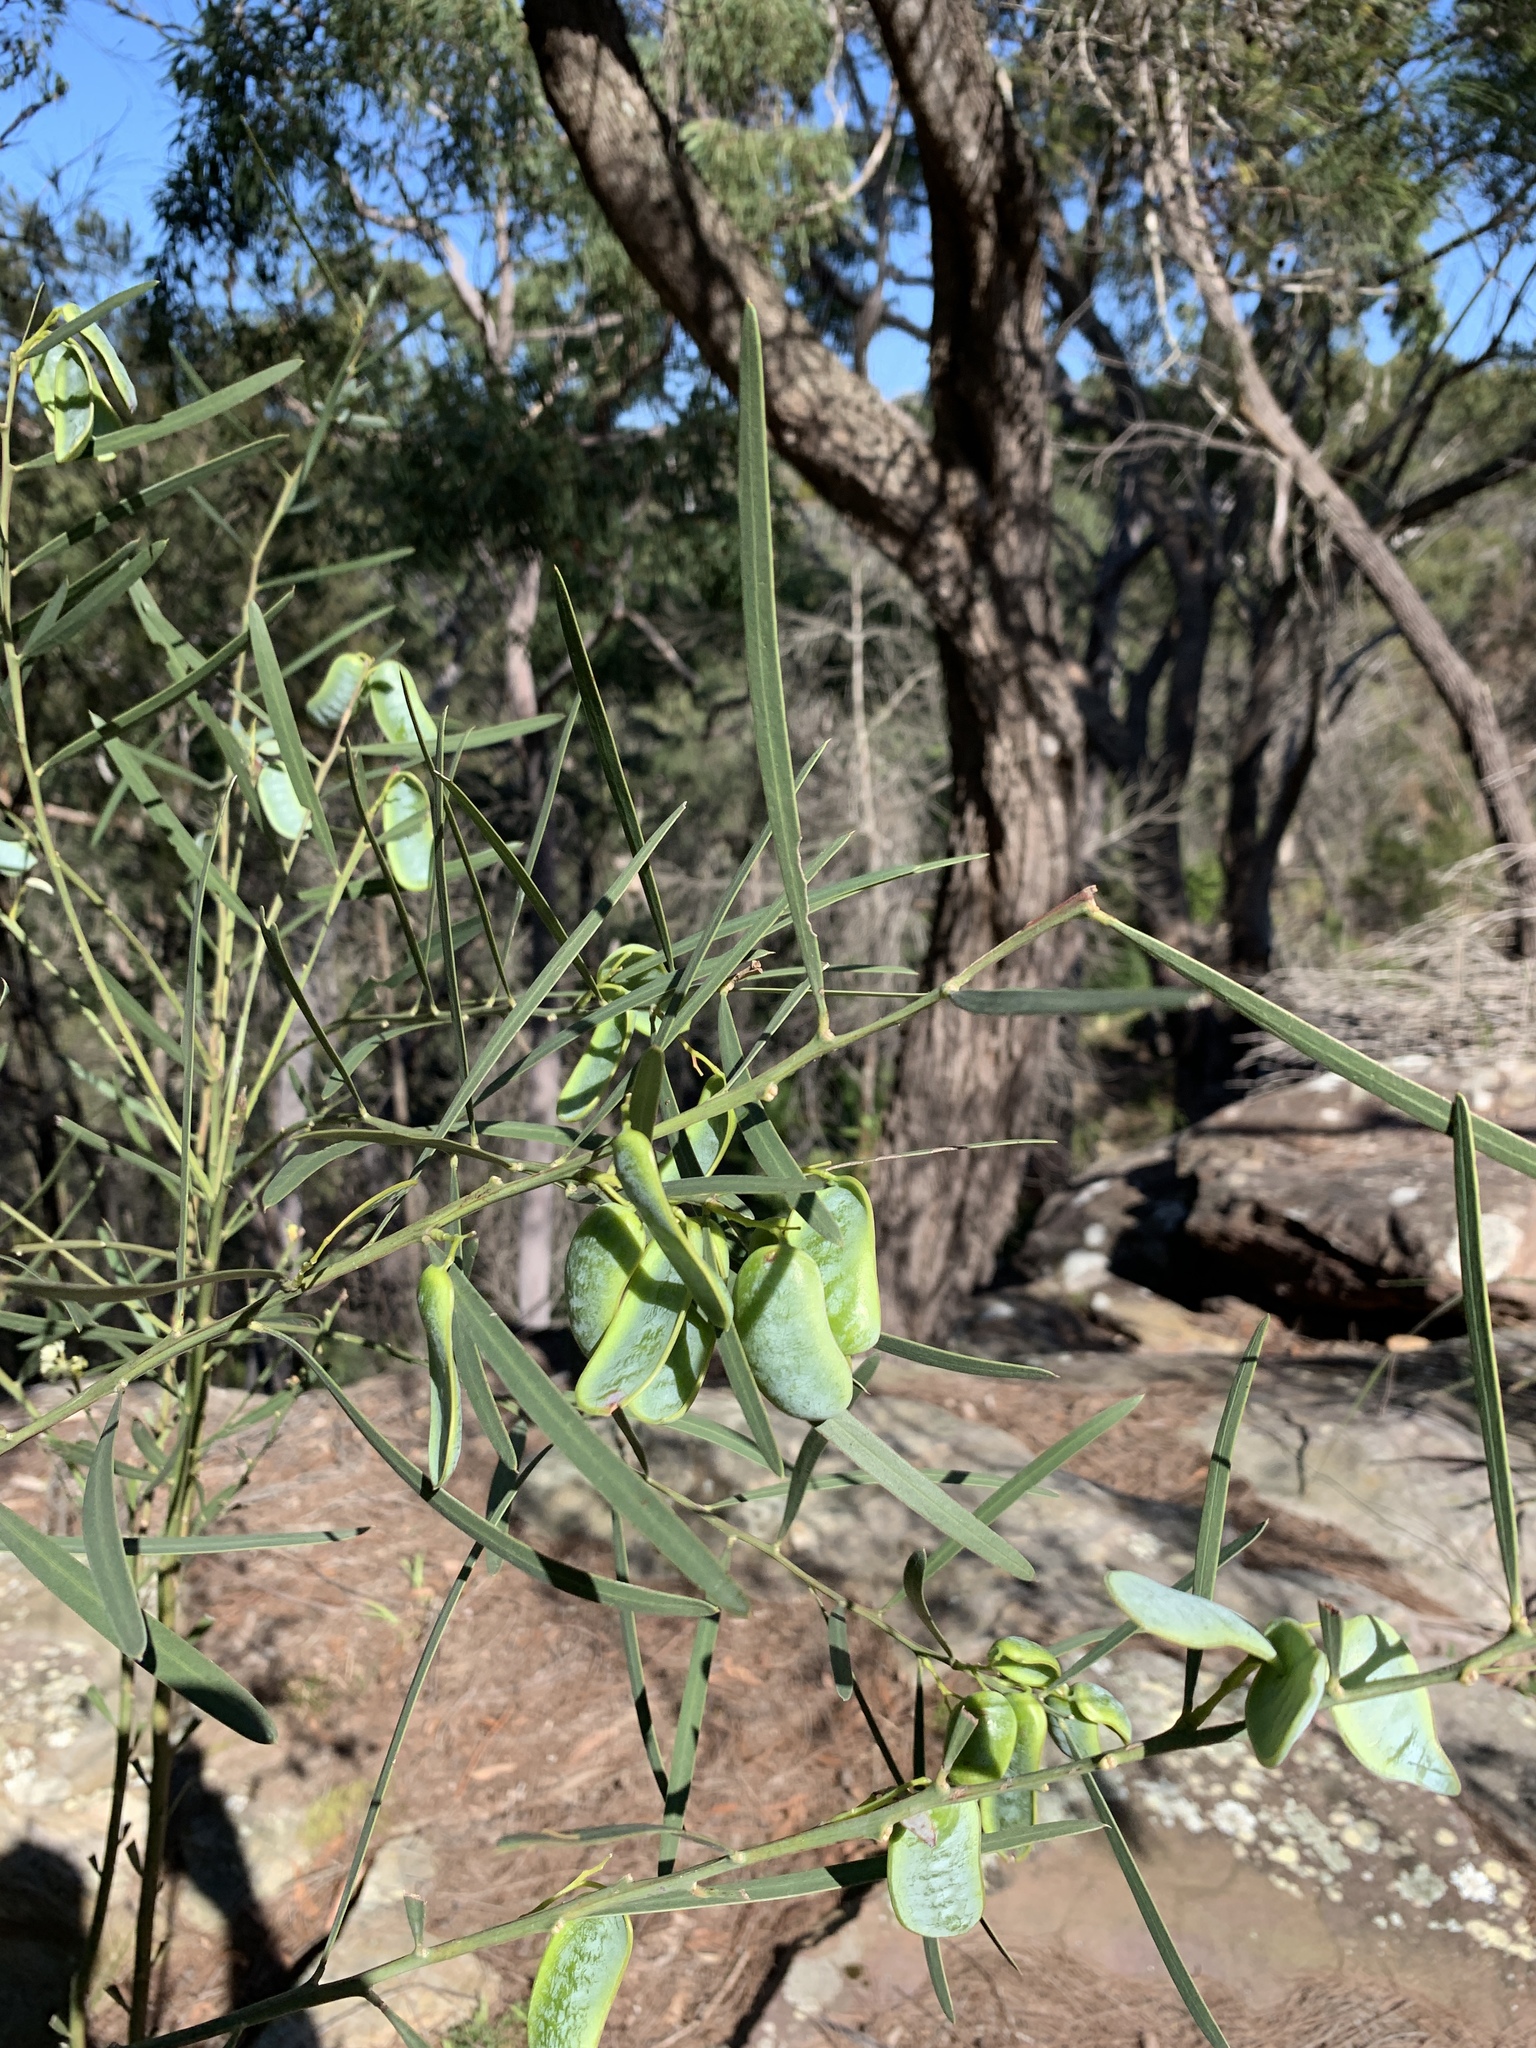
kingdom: Plantae
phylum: Tracheophyta
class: Magnoliopsida
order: Fabales
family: Fabaceae
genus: Acacia
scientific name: Acacia suaveolens
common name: Sweet acacia
